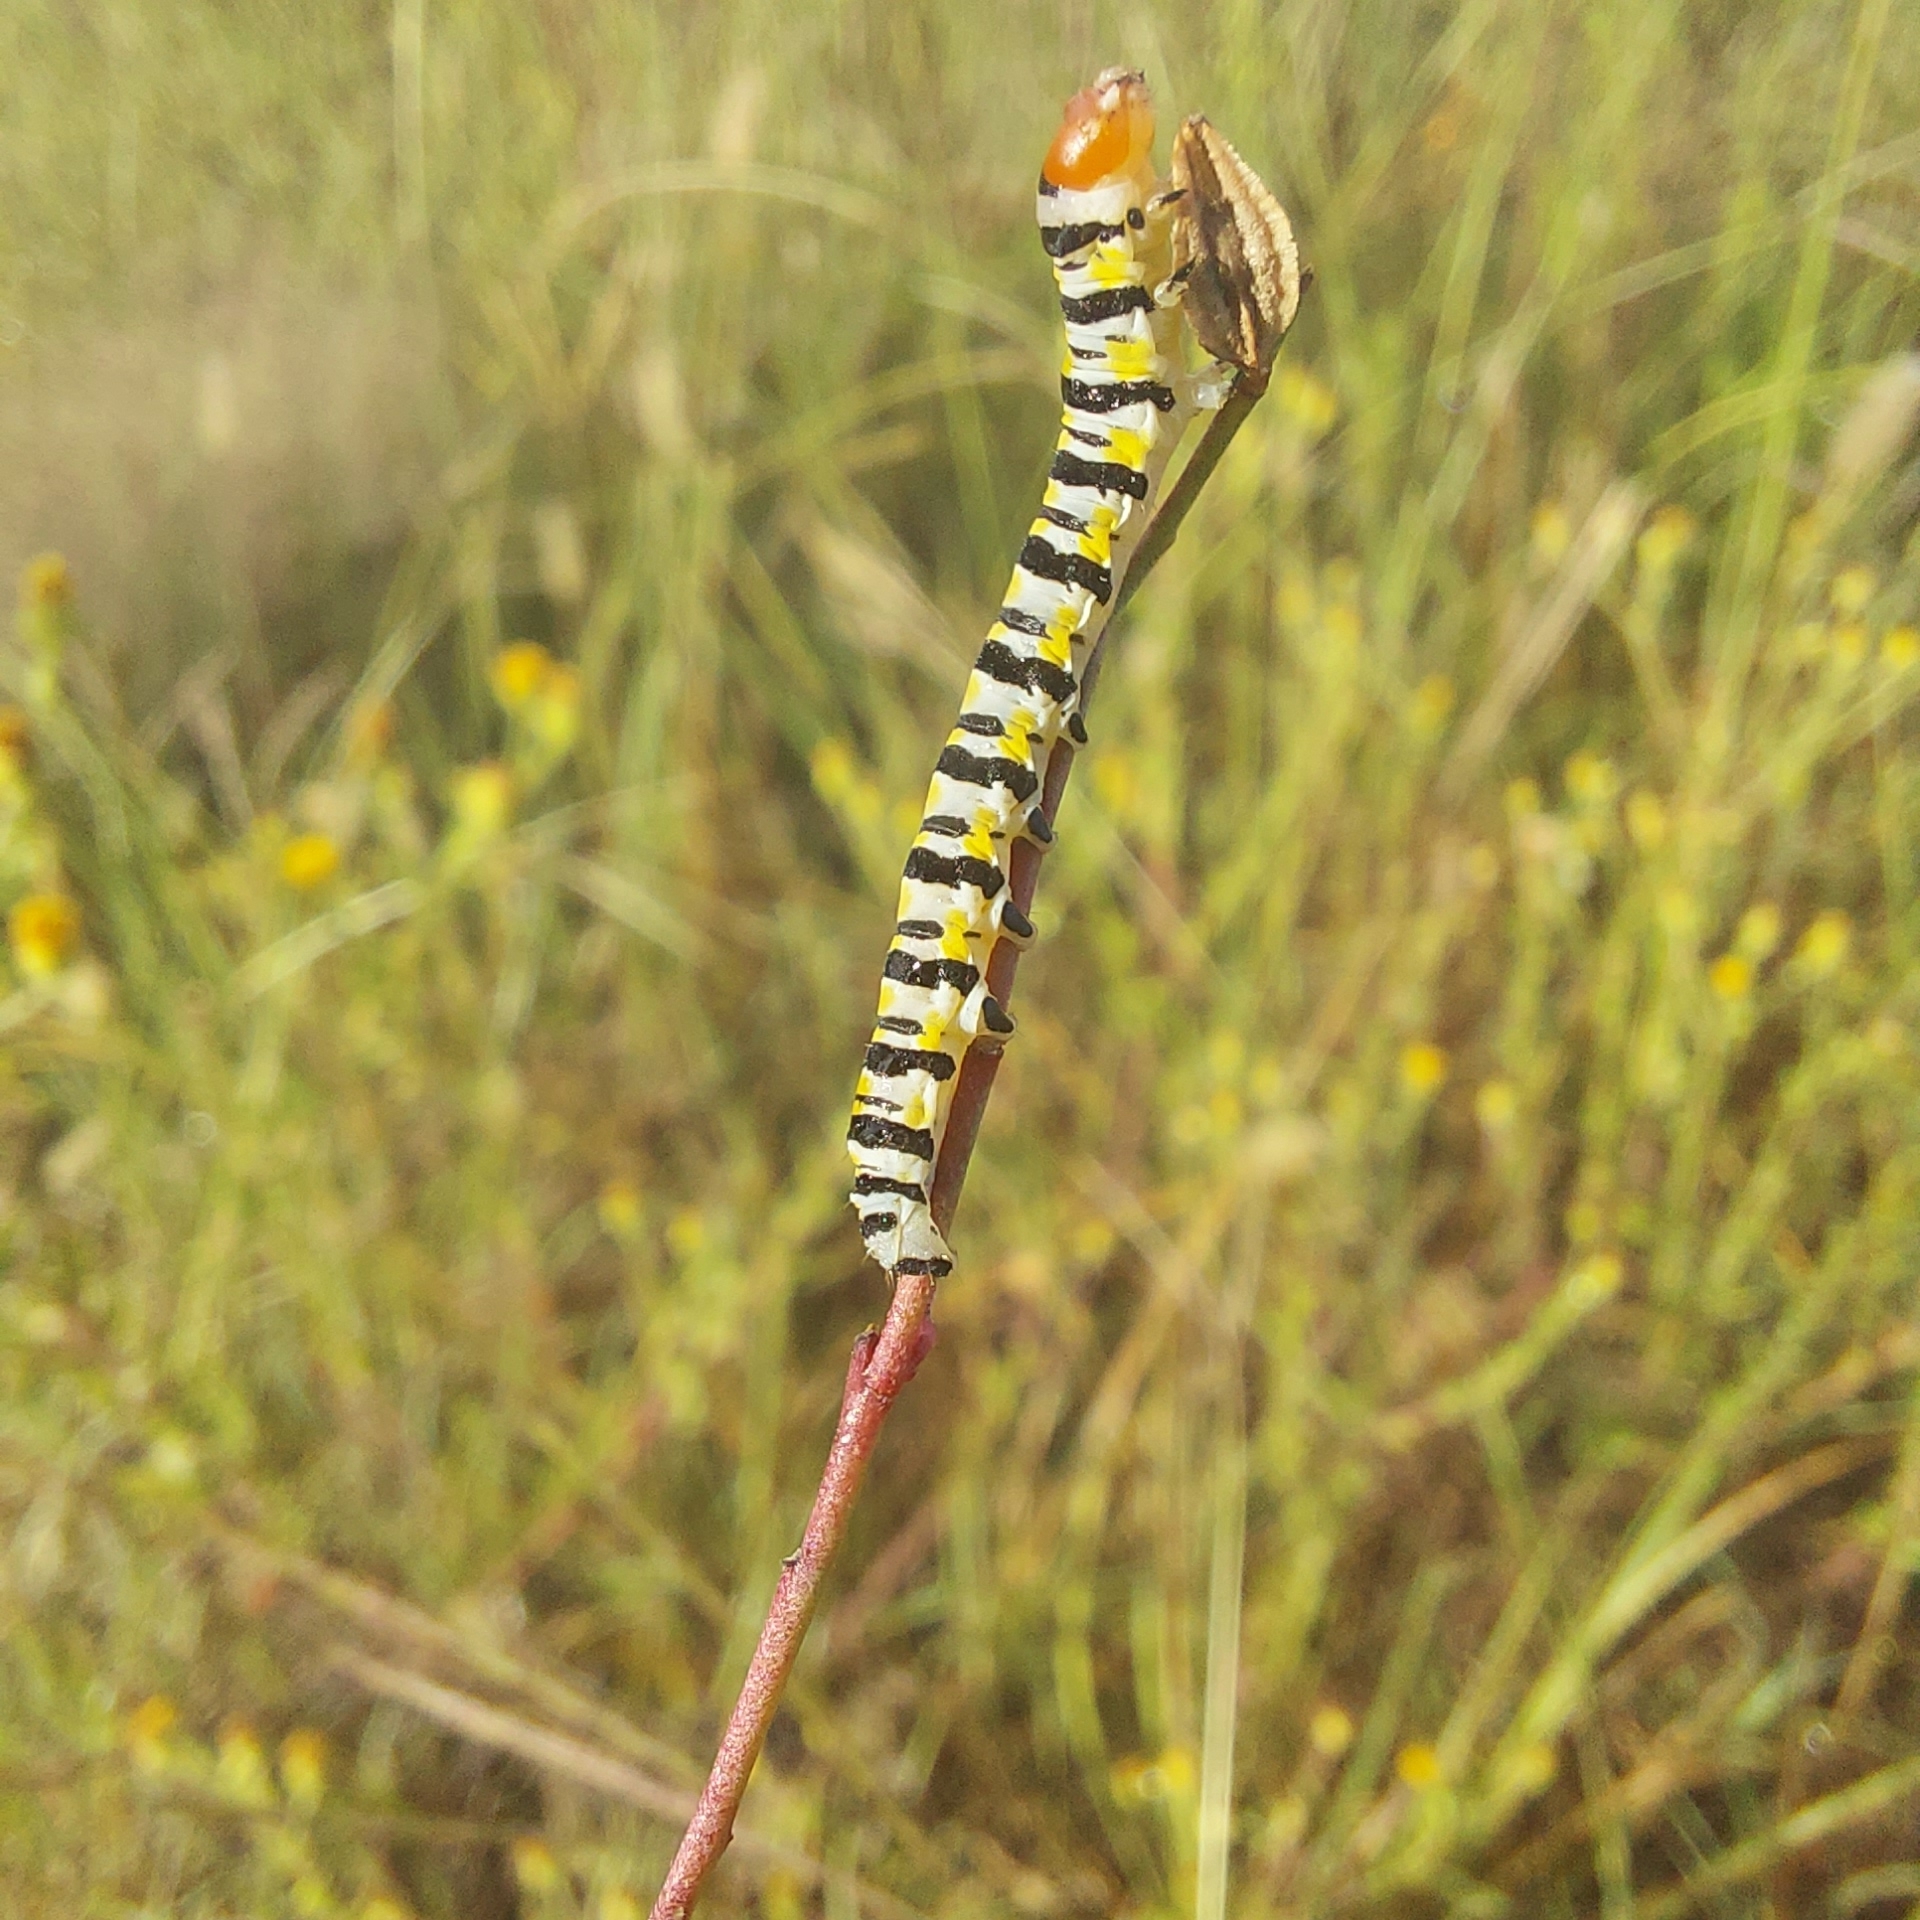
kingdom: Animalia
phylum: Arthropoda
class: Insecta
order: Lepidoptera
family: Noctuidae
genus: Schinia
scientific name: Schinia gaurae
